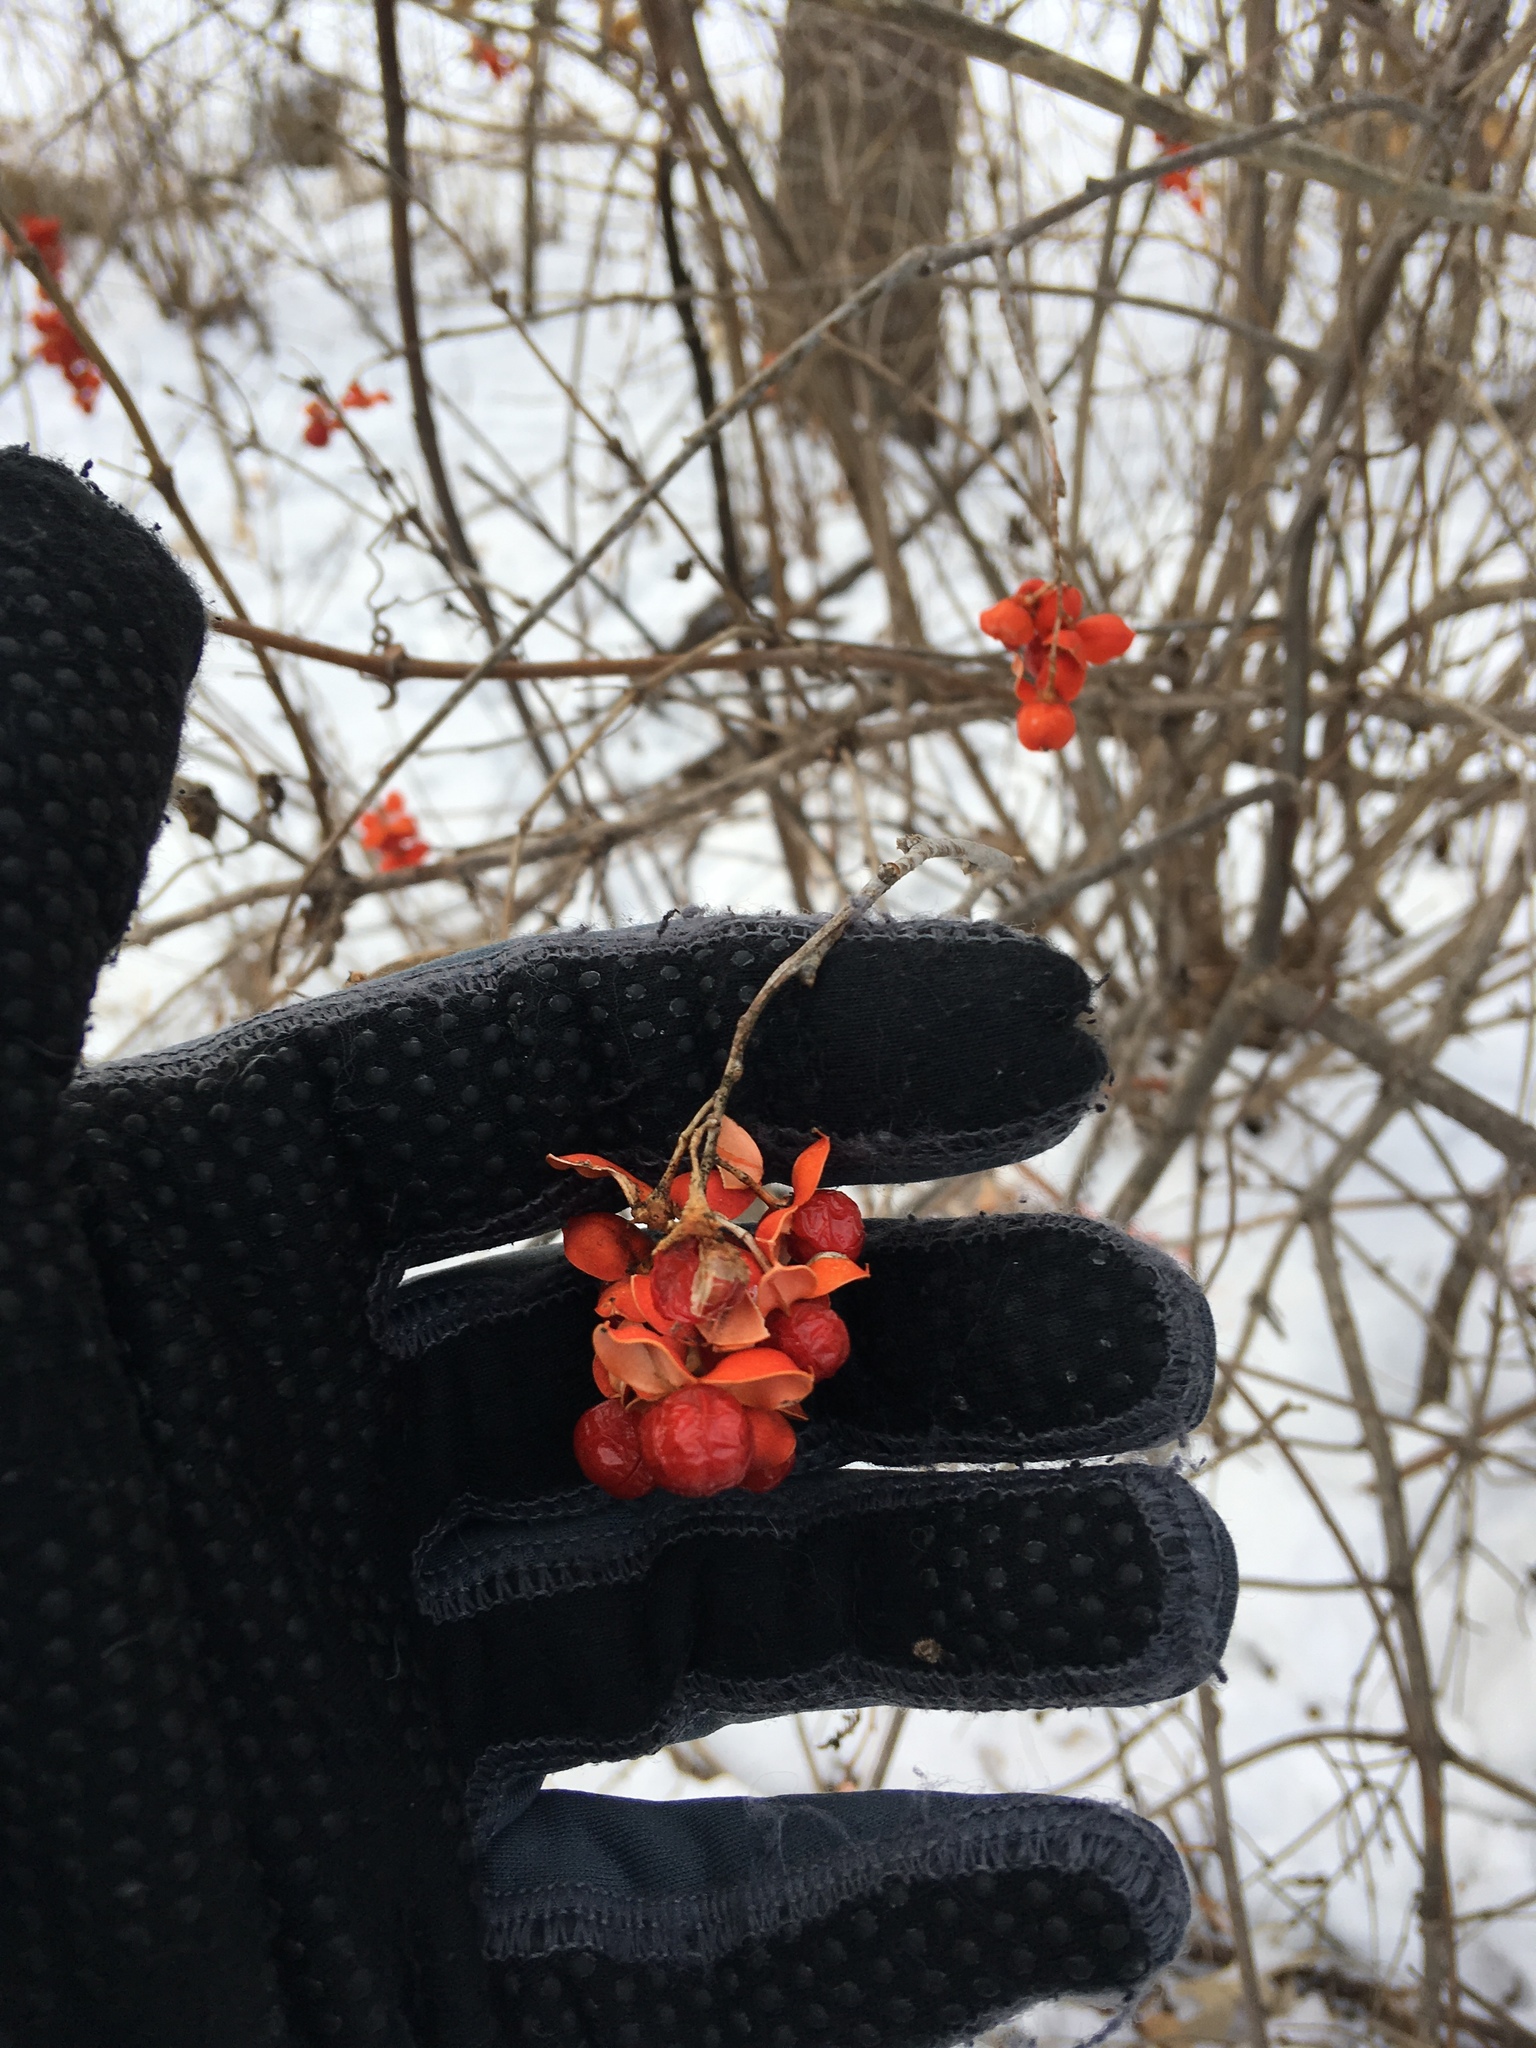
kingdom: Plantae
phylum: Tracheophyta
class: Magnoliopsida
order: Celastrales
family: Celastraceae
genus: Celastrus
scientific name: Celastrus scandens
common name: American bittersweet
